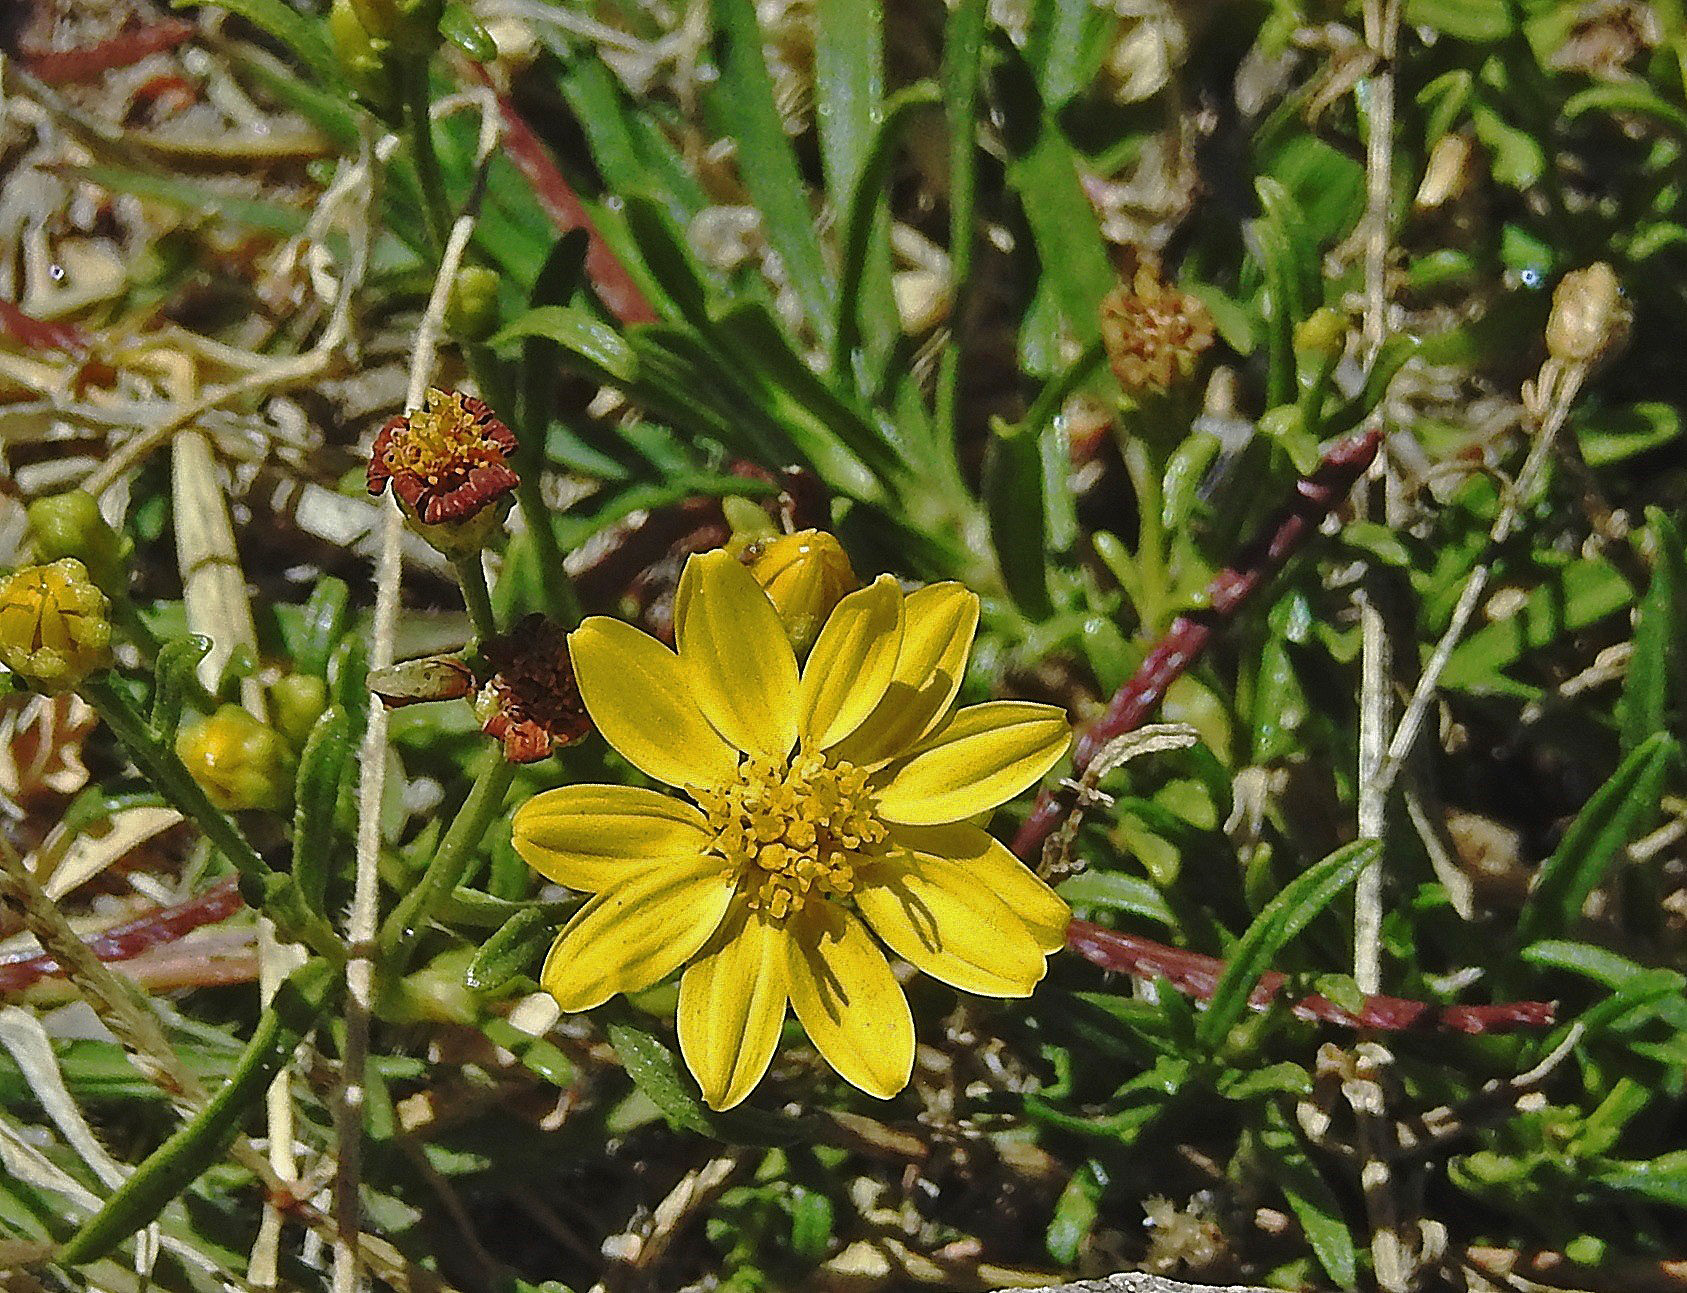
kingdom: Plantae
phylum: Tracheophyta
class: Magnoliopsida
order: Asterales
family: Asteraceae
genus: Gutierrezia
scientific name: Gutierrezia mandonii
